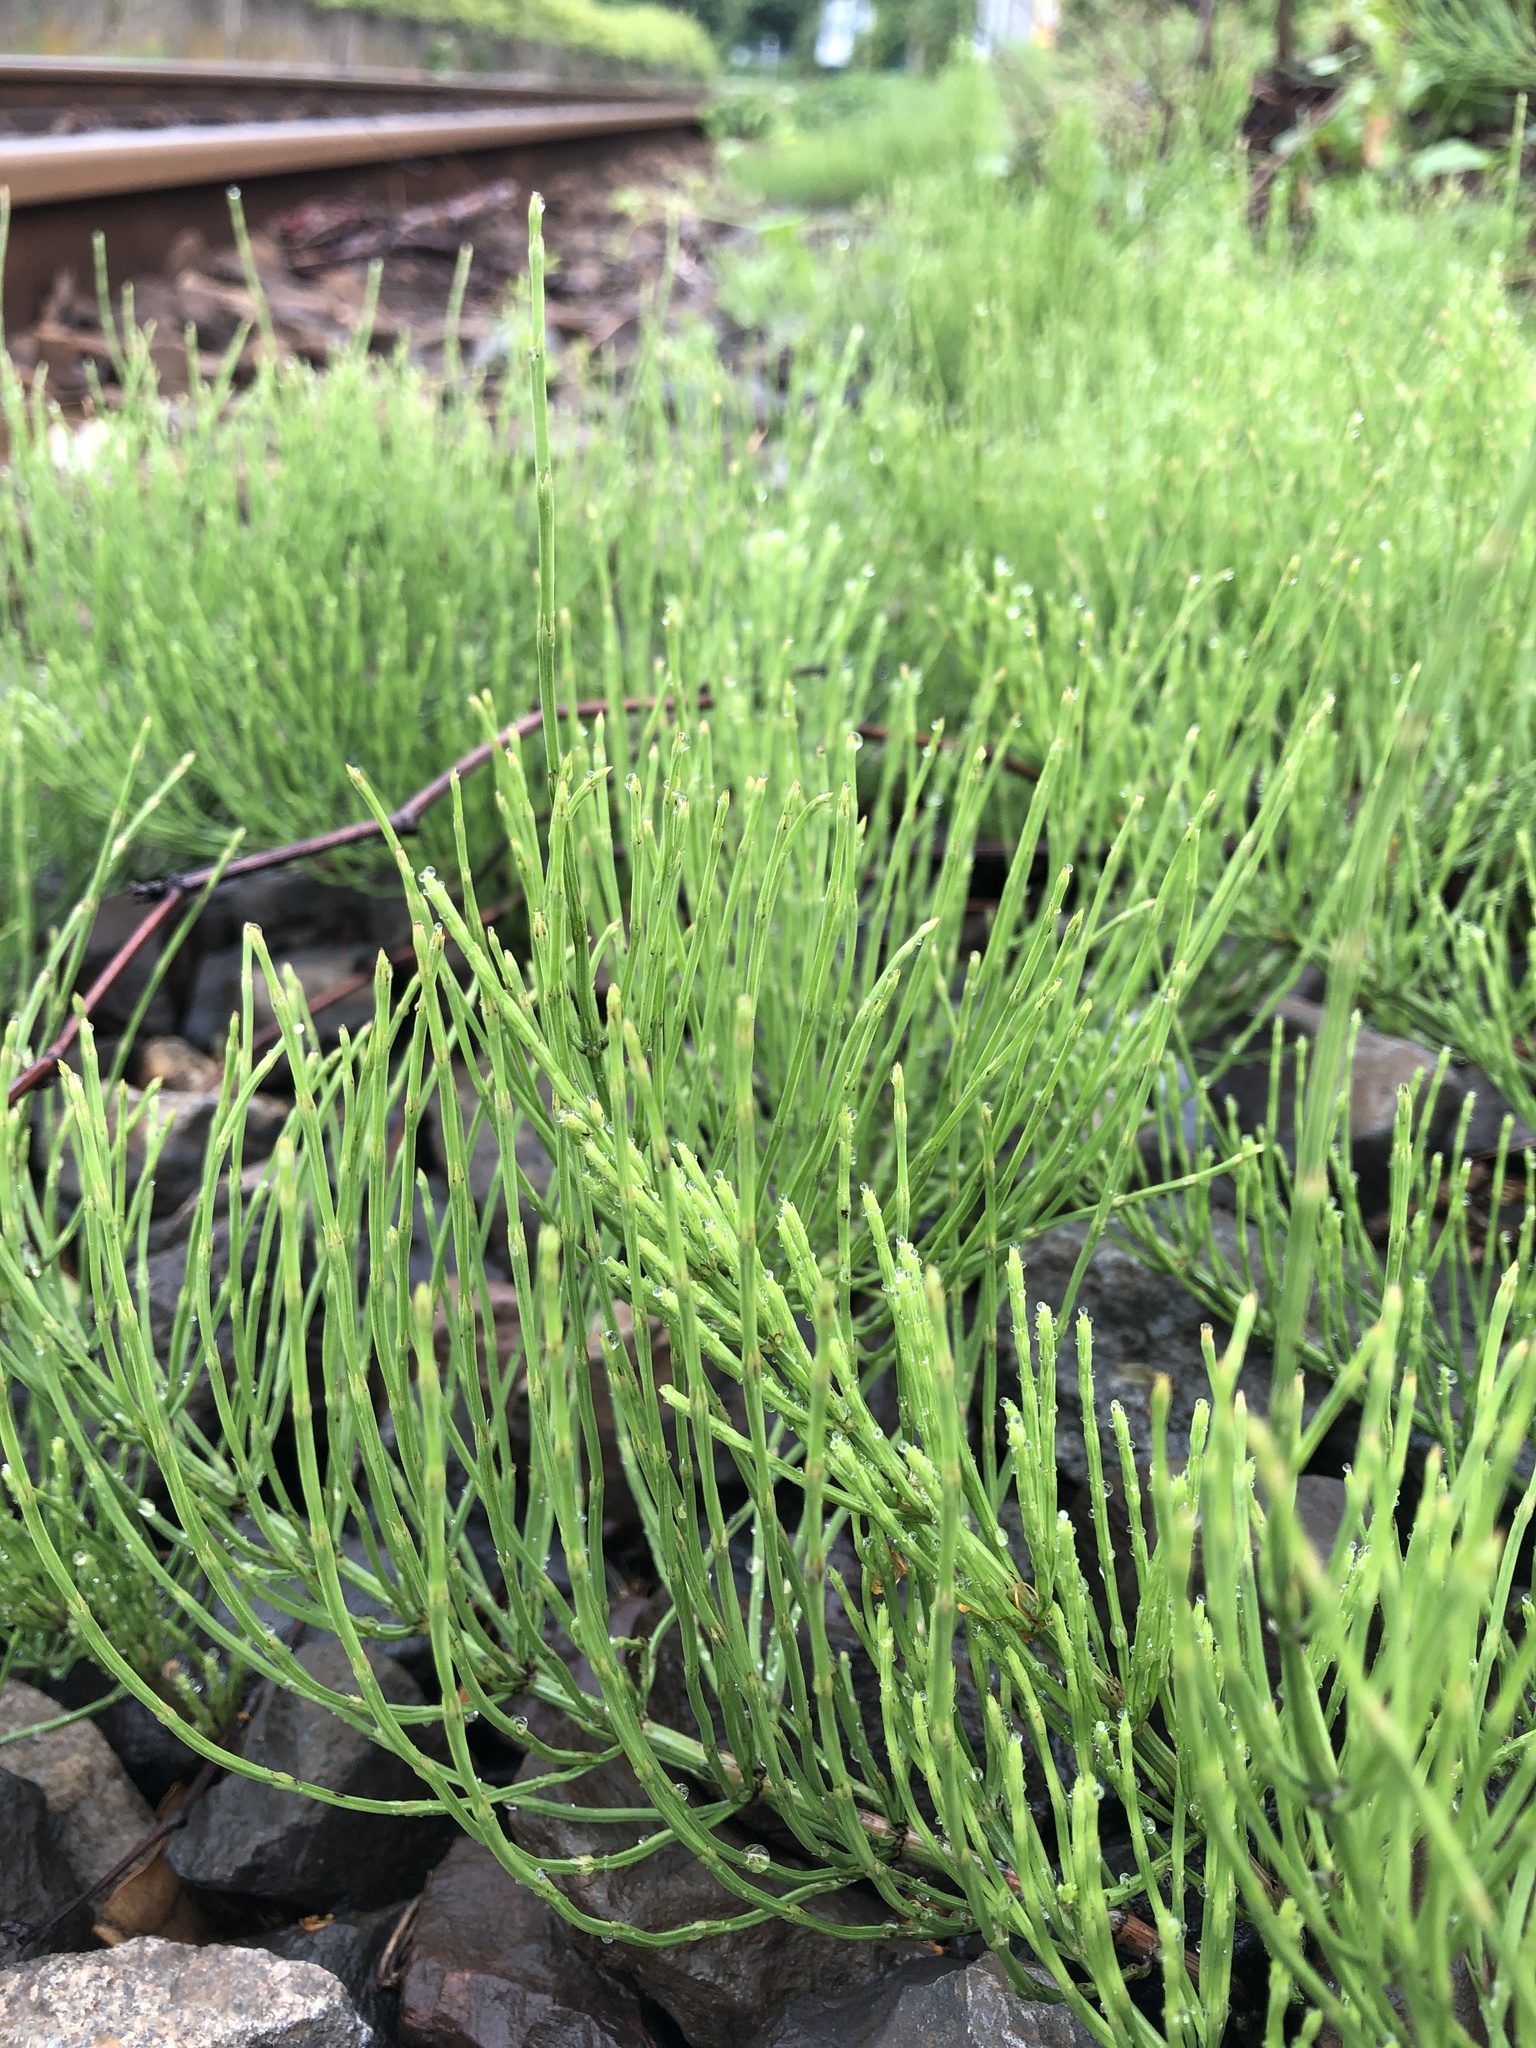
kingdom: Plantae
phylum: Tracheophyta
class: Polypodiopsida
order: Equisetales
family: Equisetaceae
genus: Equisetum
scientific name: Equisetum arvense
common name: Field horsetail
